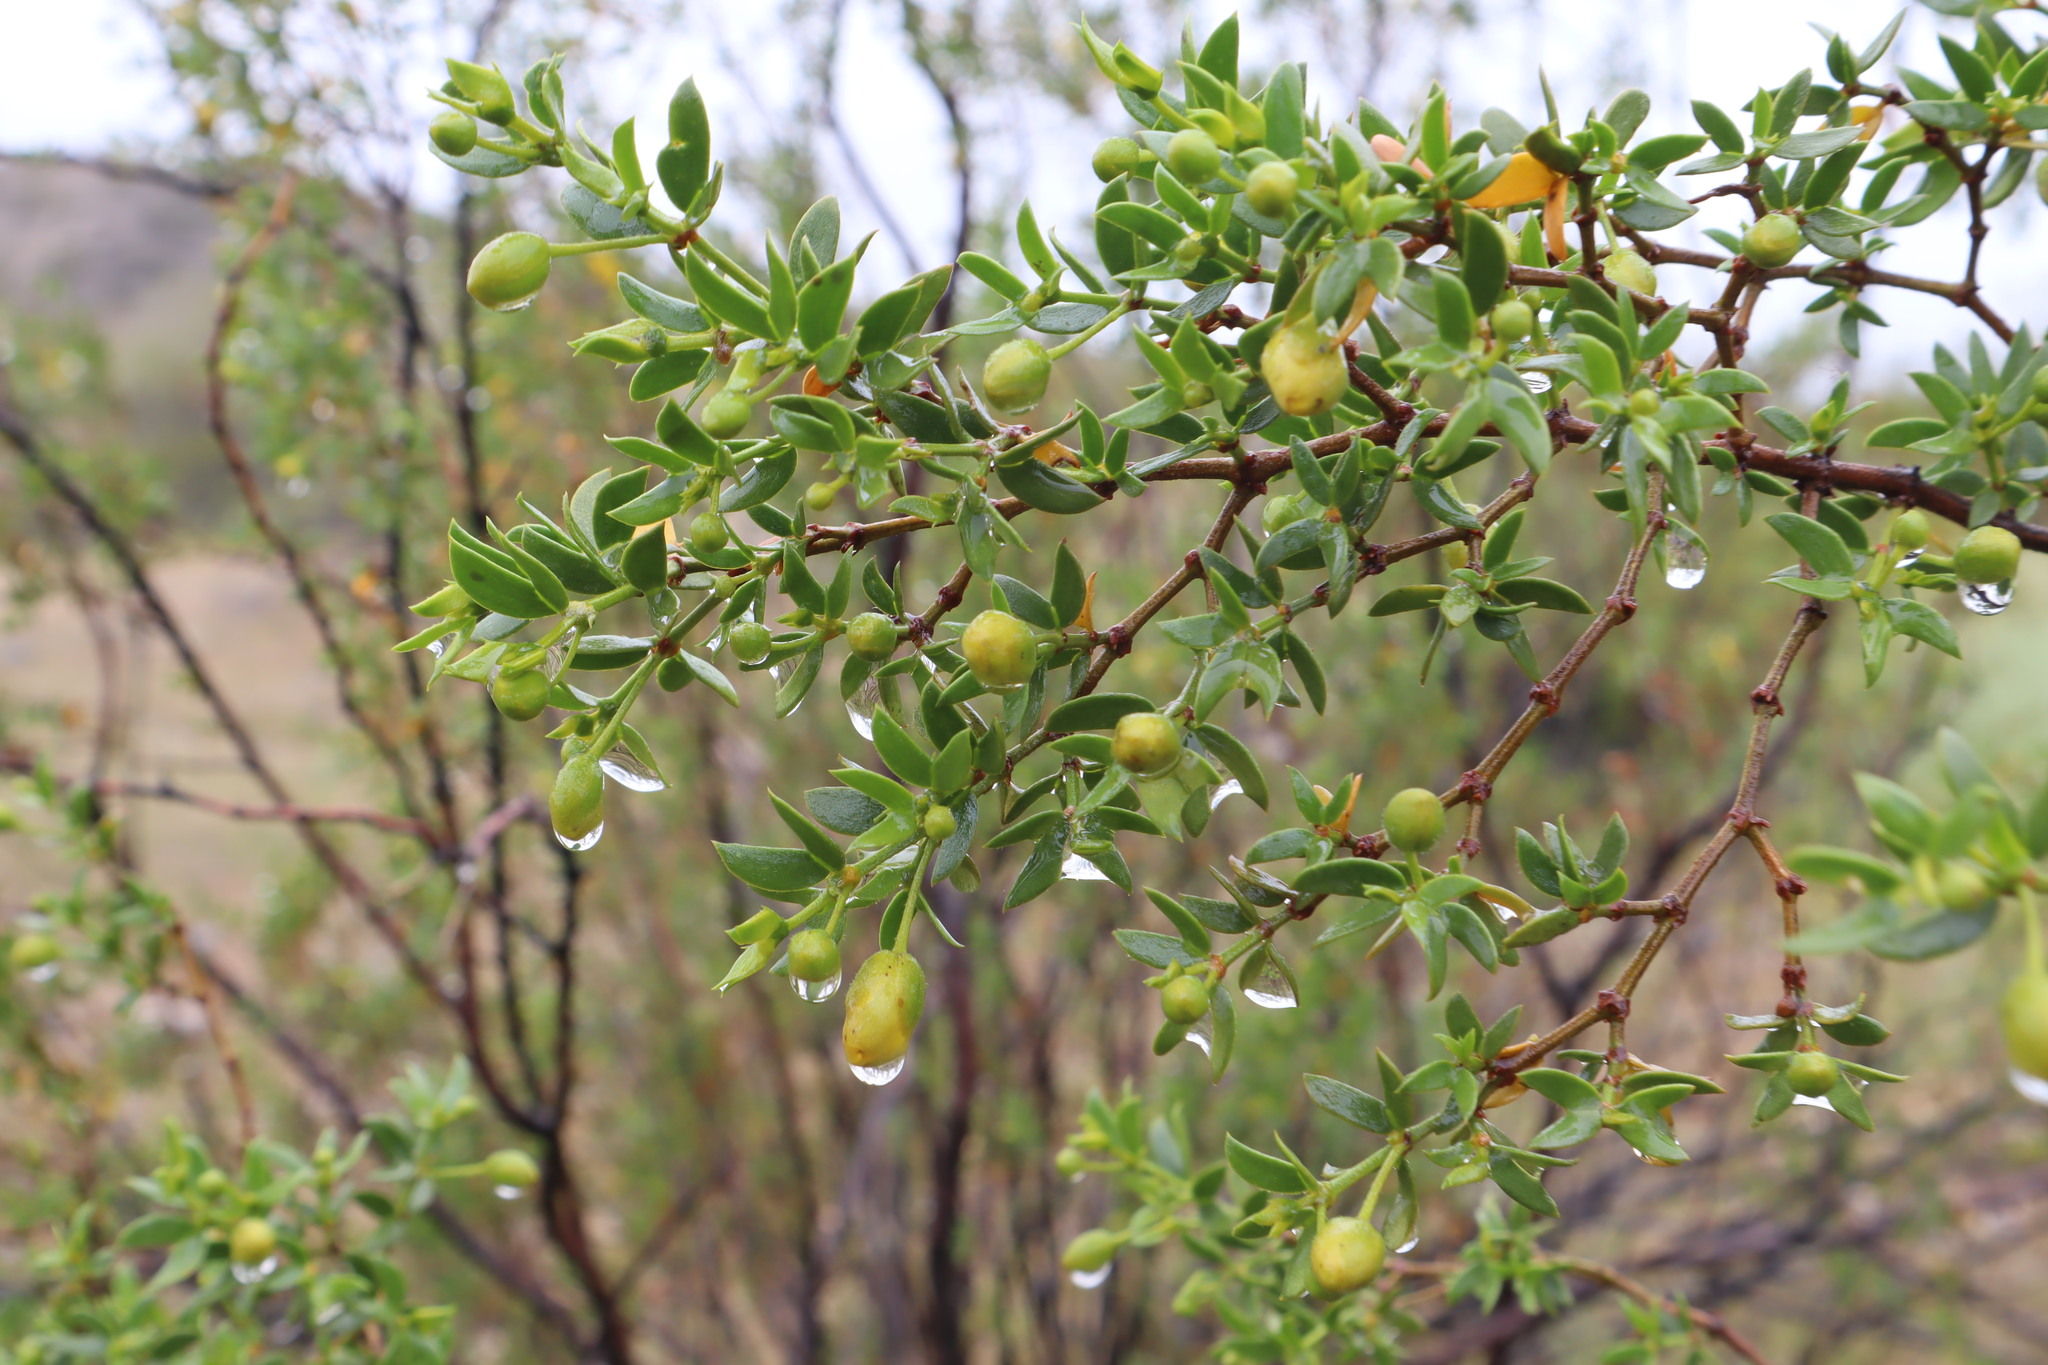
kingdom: Plantae
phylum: Tracheophyta
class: Magnoliopsida
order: Zygophyllales
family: Zygophyllaceae
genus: Larrea
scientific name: Larrea tridentata
